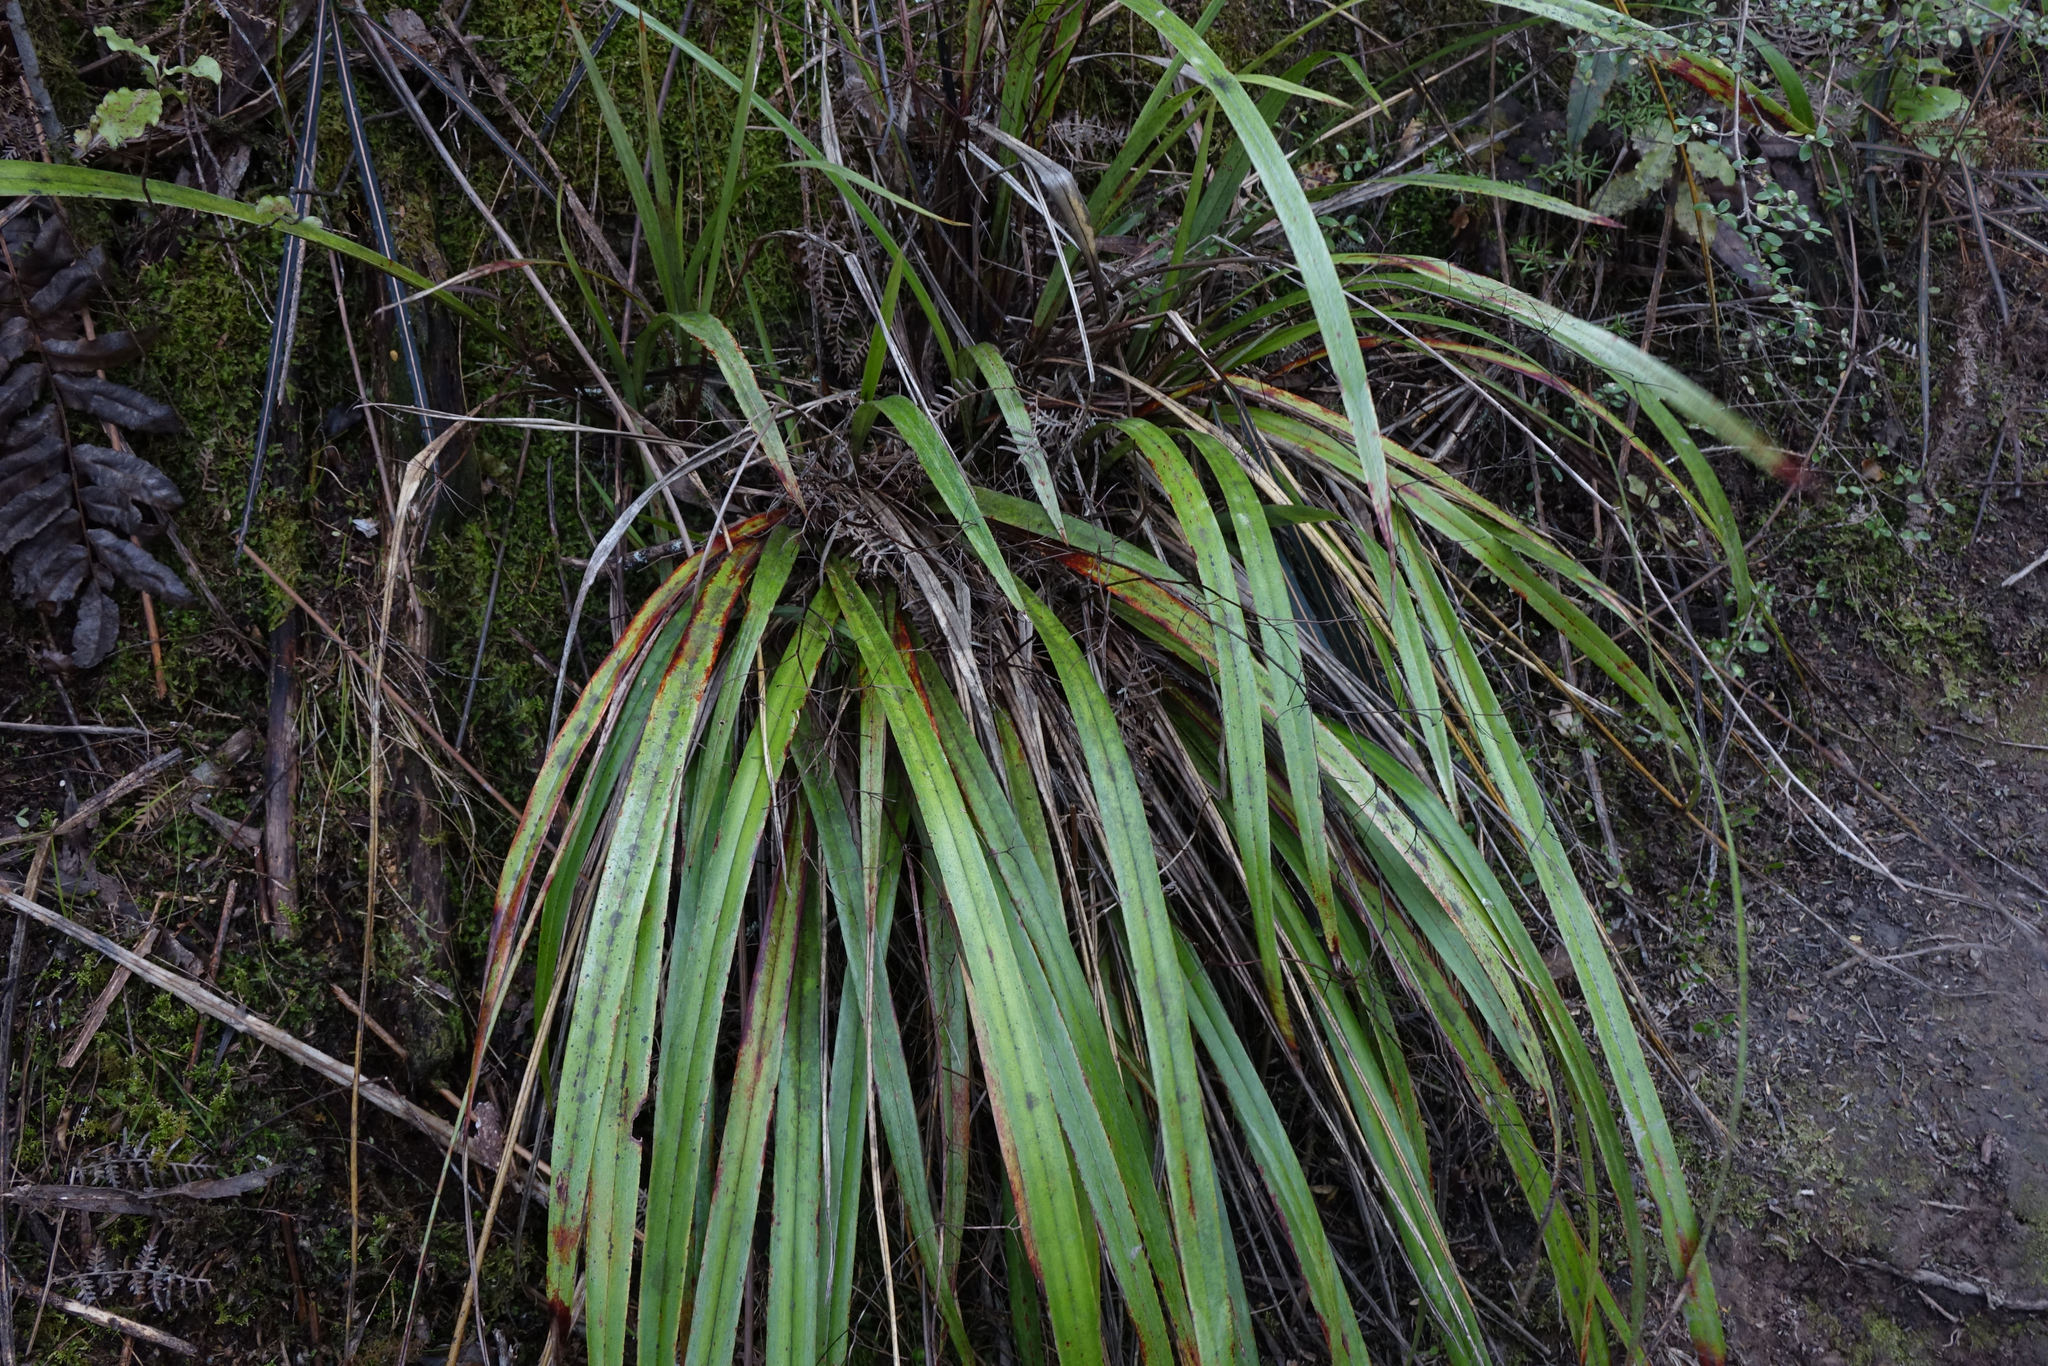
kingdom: Plantae
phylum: Tracheophyta
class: Liliopsida
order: Asparagales
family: Asphodelaceae
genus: Dianella
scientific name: Dianella nigra
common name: New zealand-blueberry
